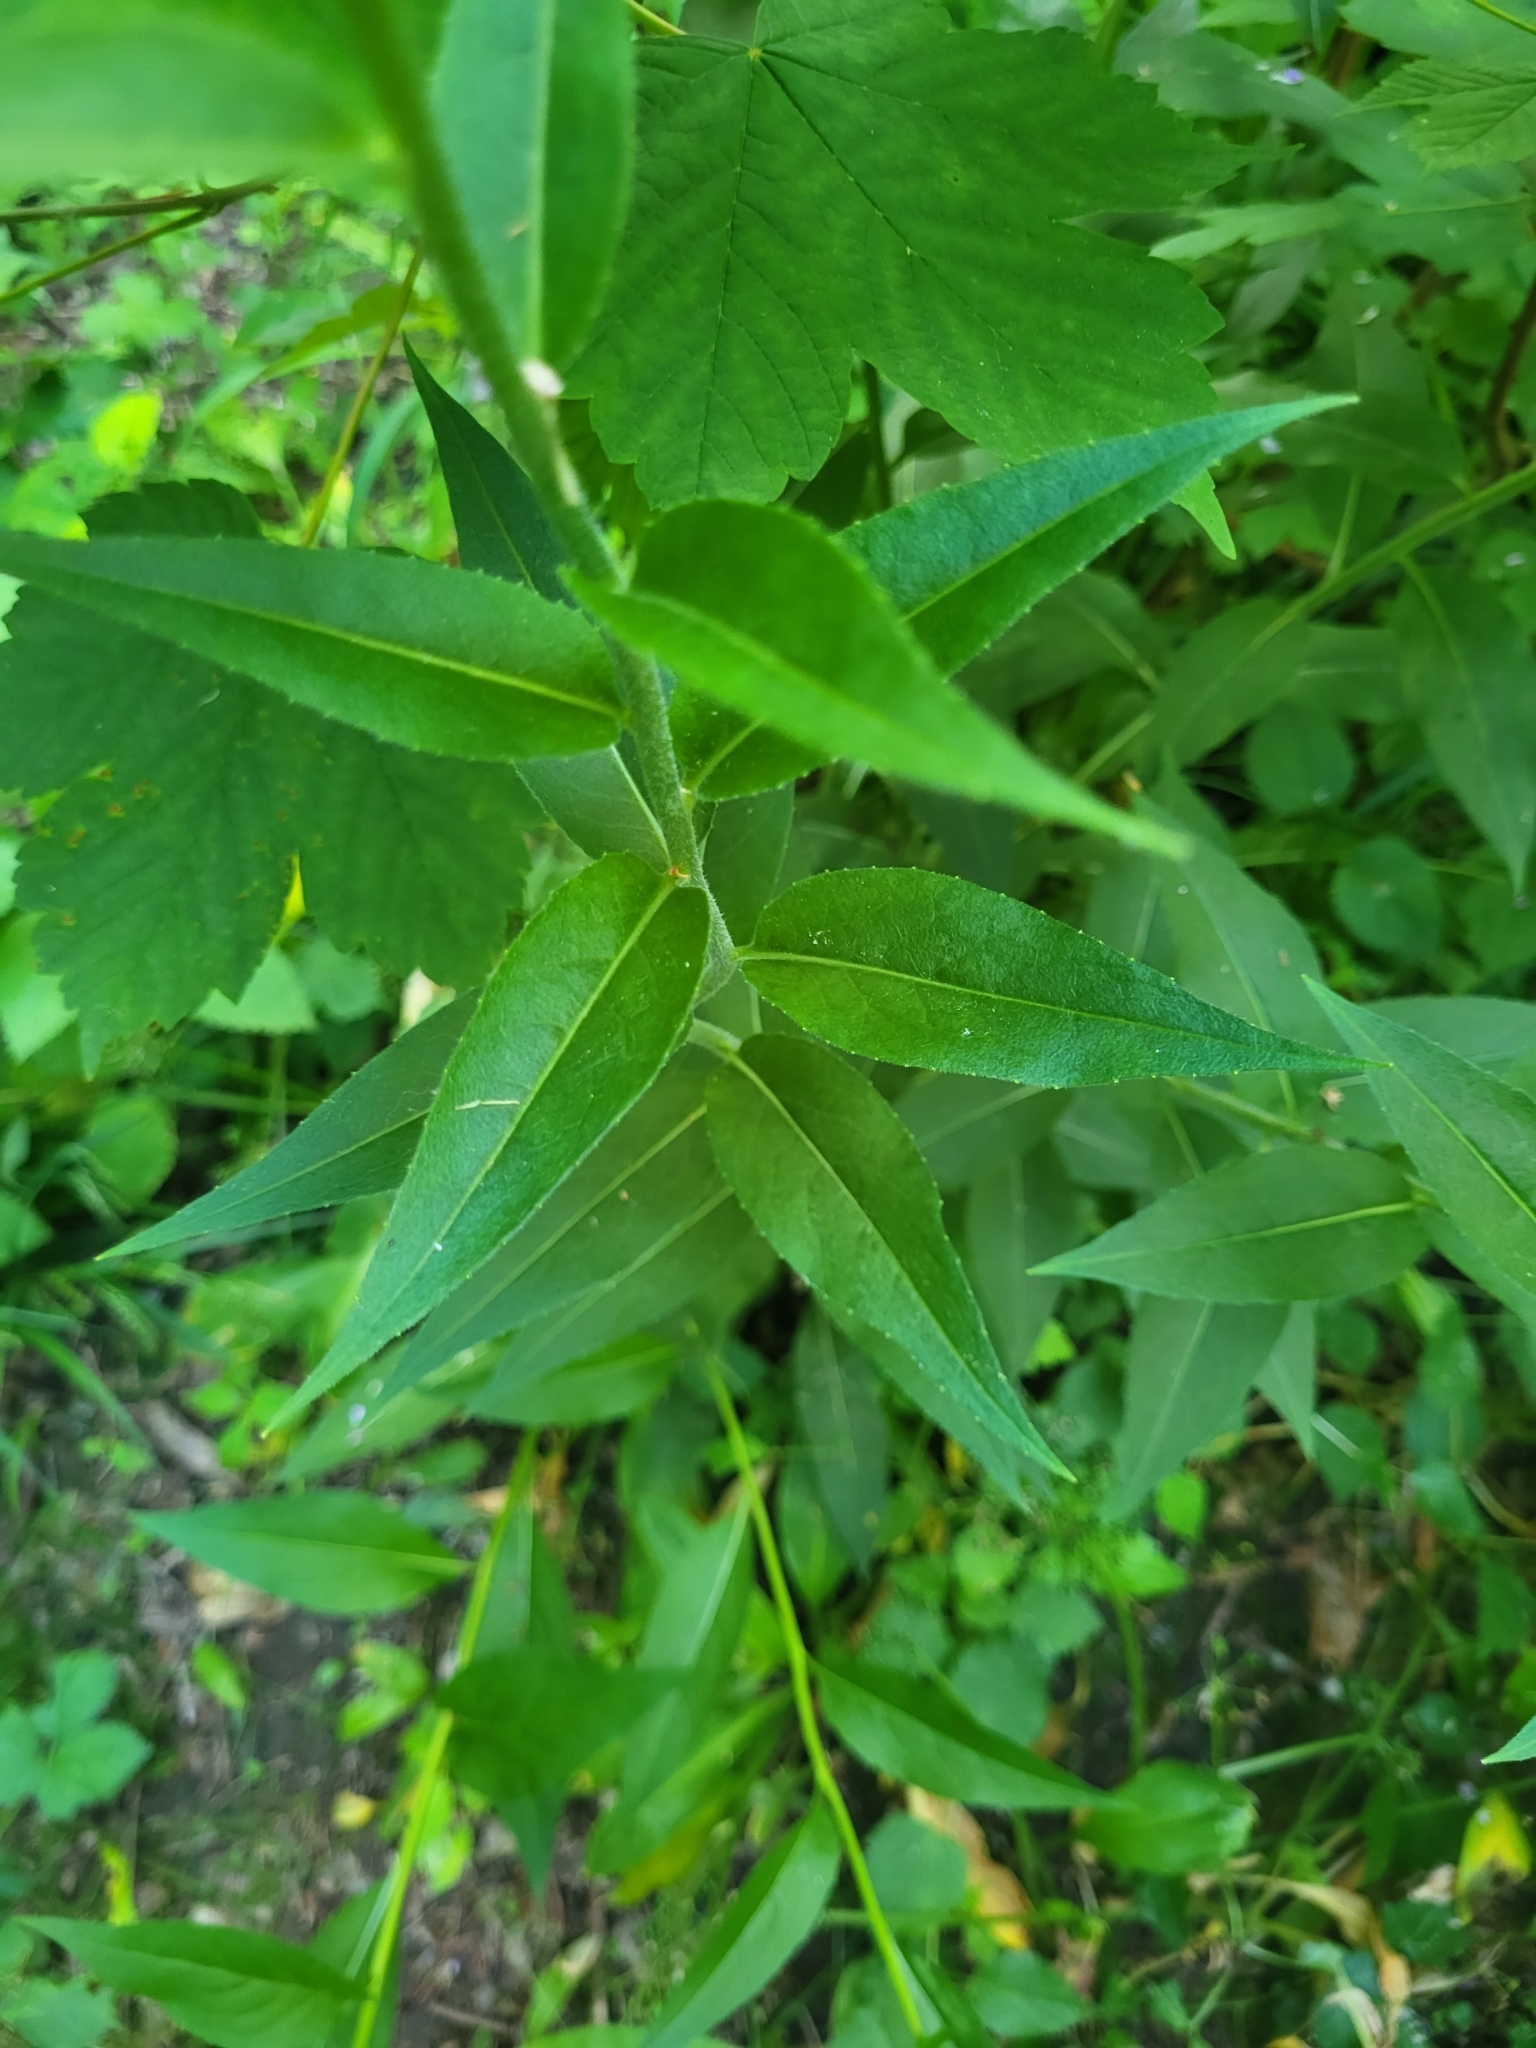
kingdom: Plantae
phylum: Tracheophyta
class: Magnoliopsida
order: Brassicales
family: Brassicaceae
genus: Hesperis
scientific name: Hesperis matronalis
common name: Dame's-violet
